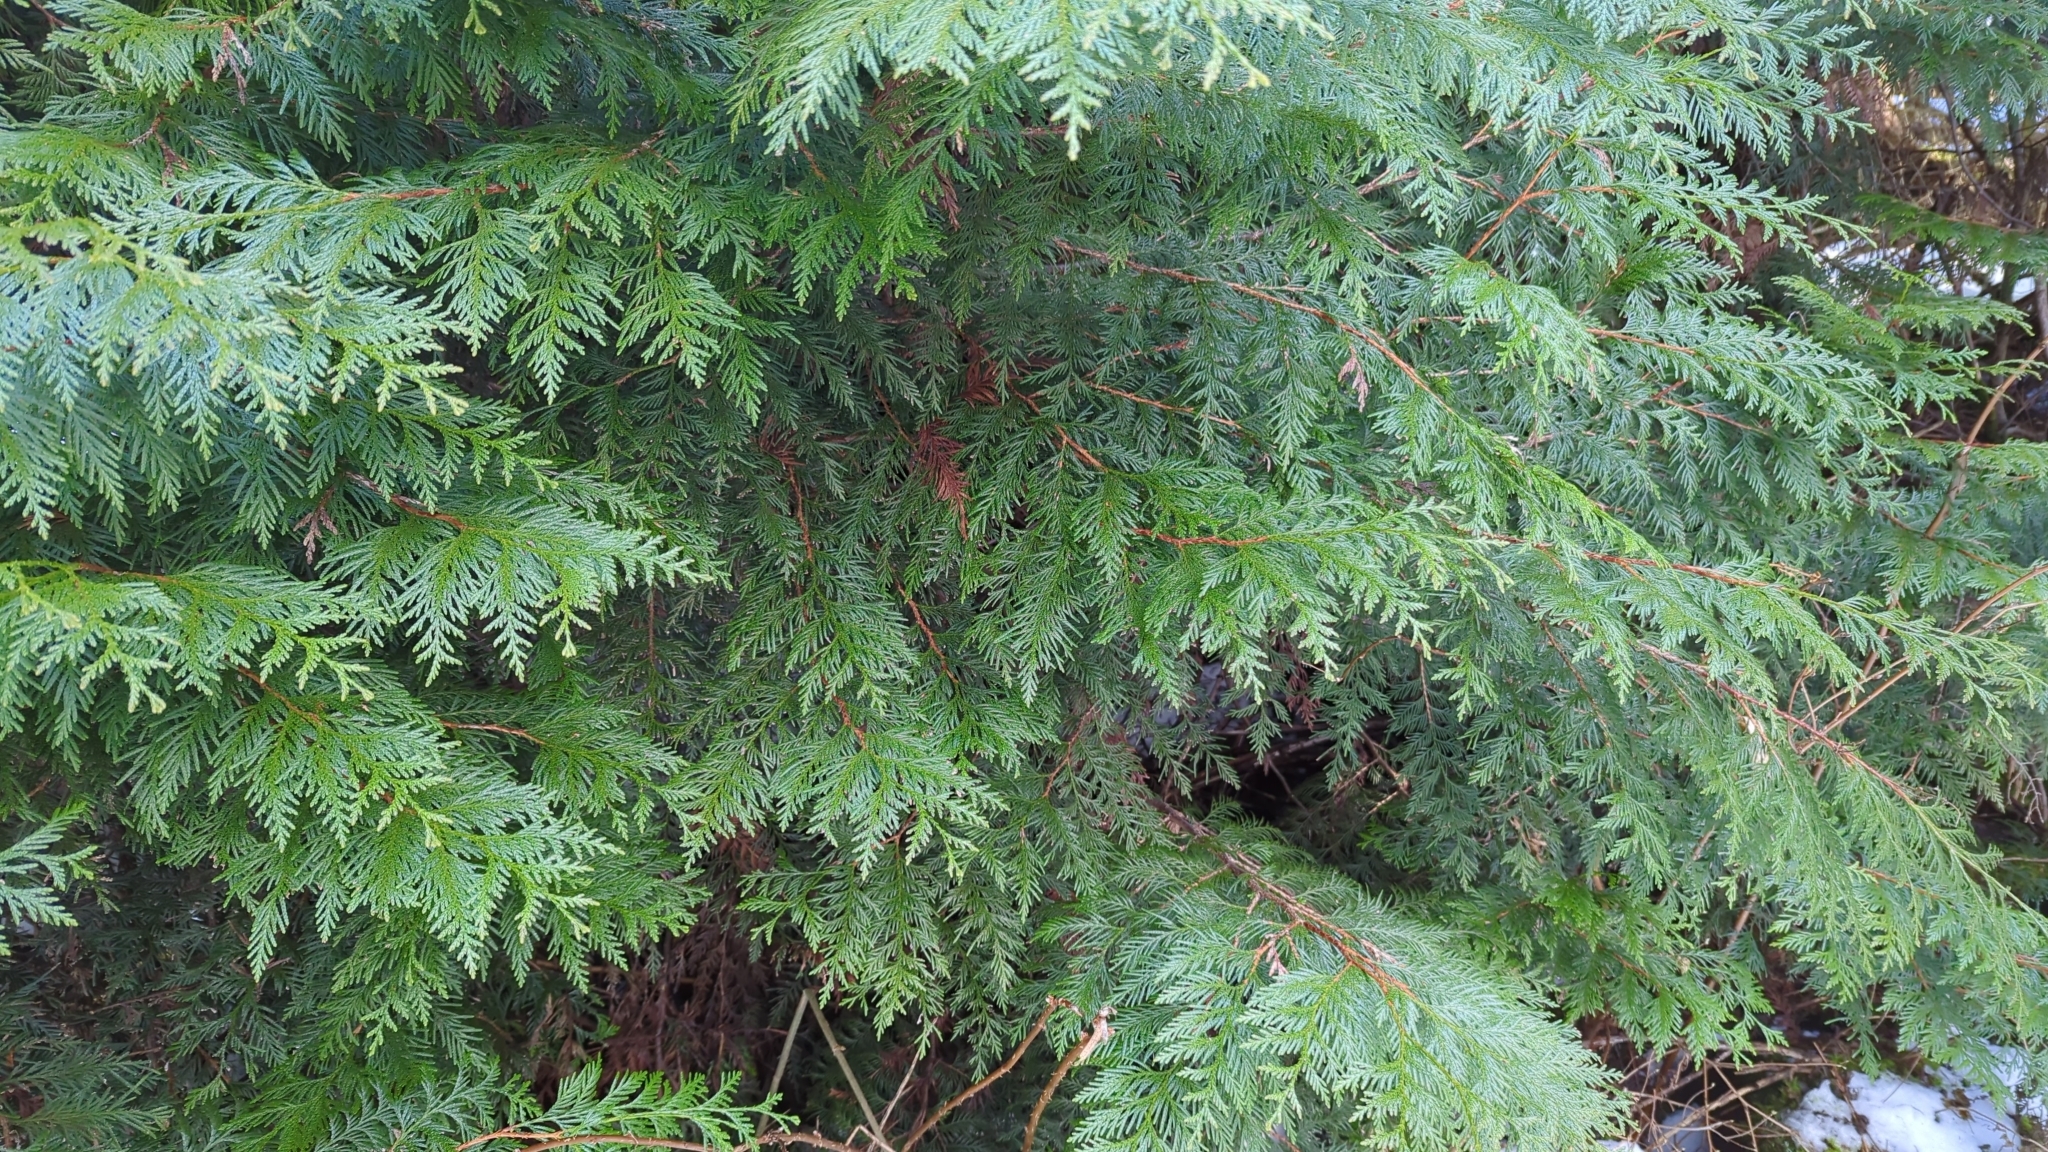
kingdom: Plantae
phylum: Tracheophyta
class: Pinopsida
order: Pinales
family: Cupressaceae
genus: Thuja
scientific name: Thuja plicata
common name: Western red-cedar
